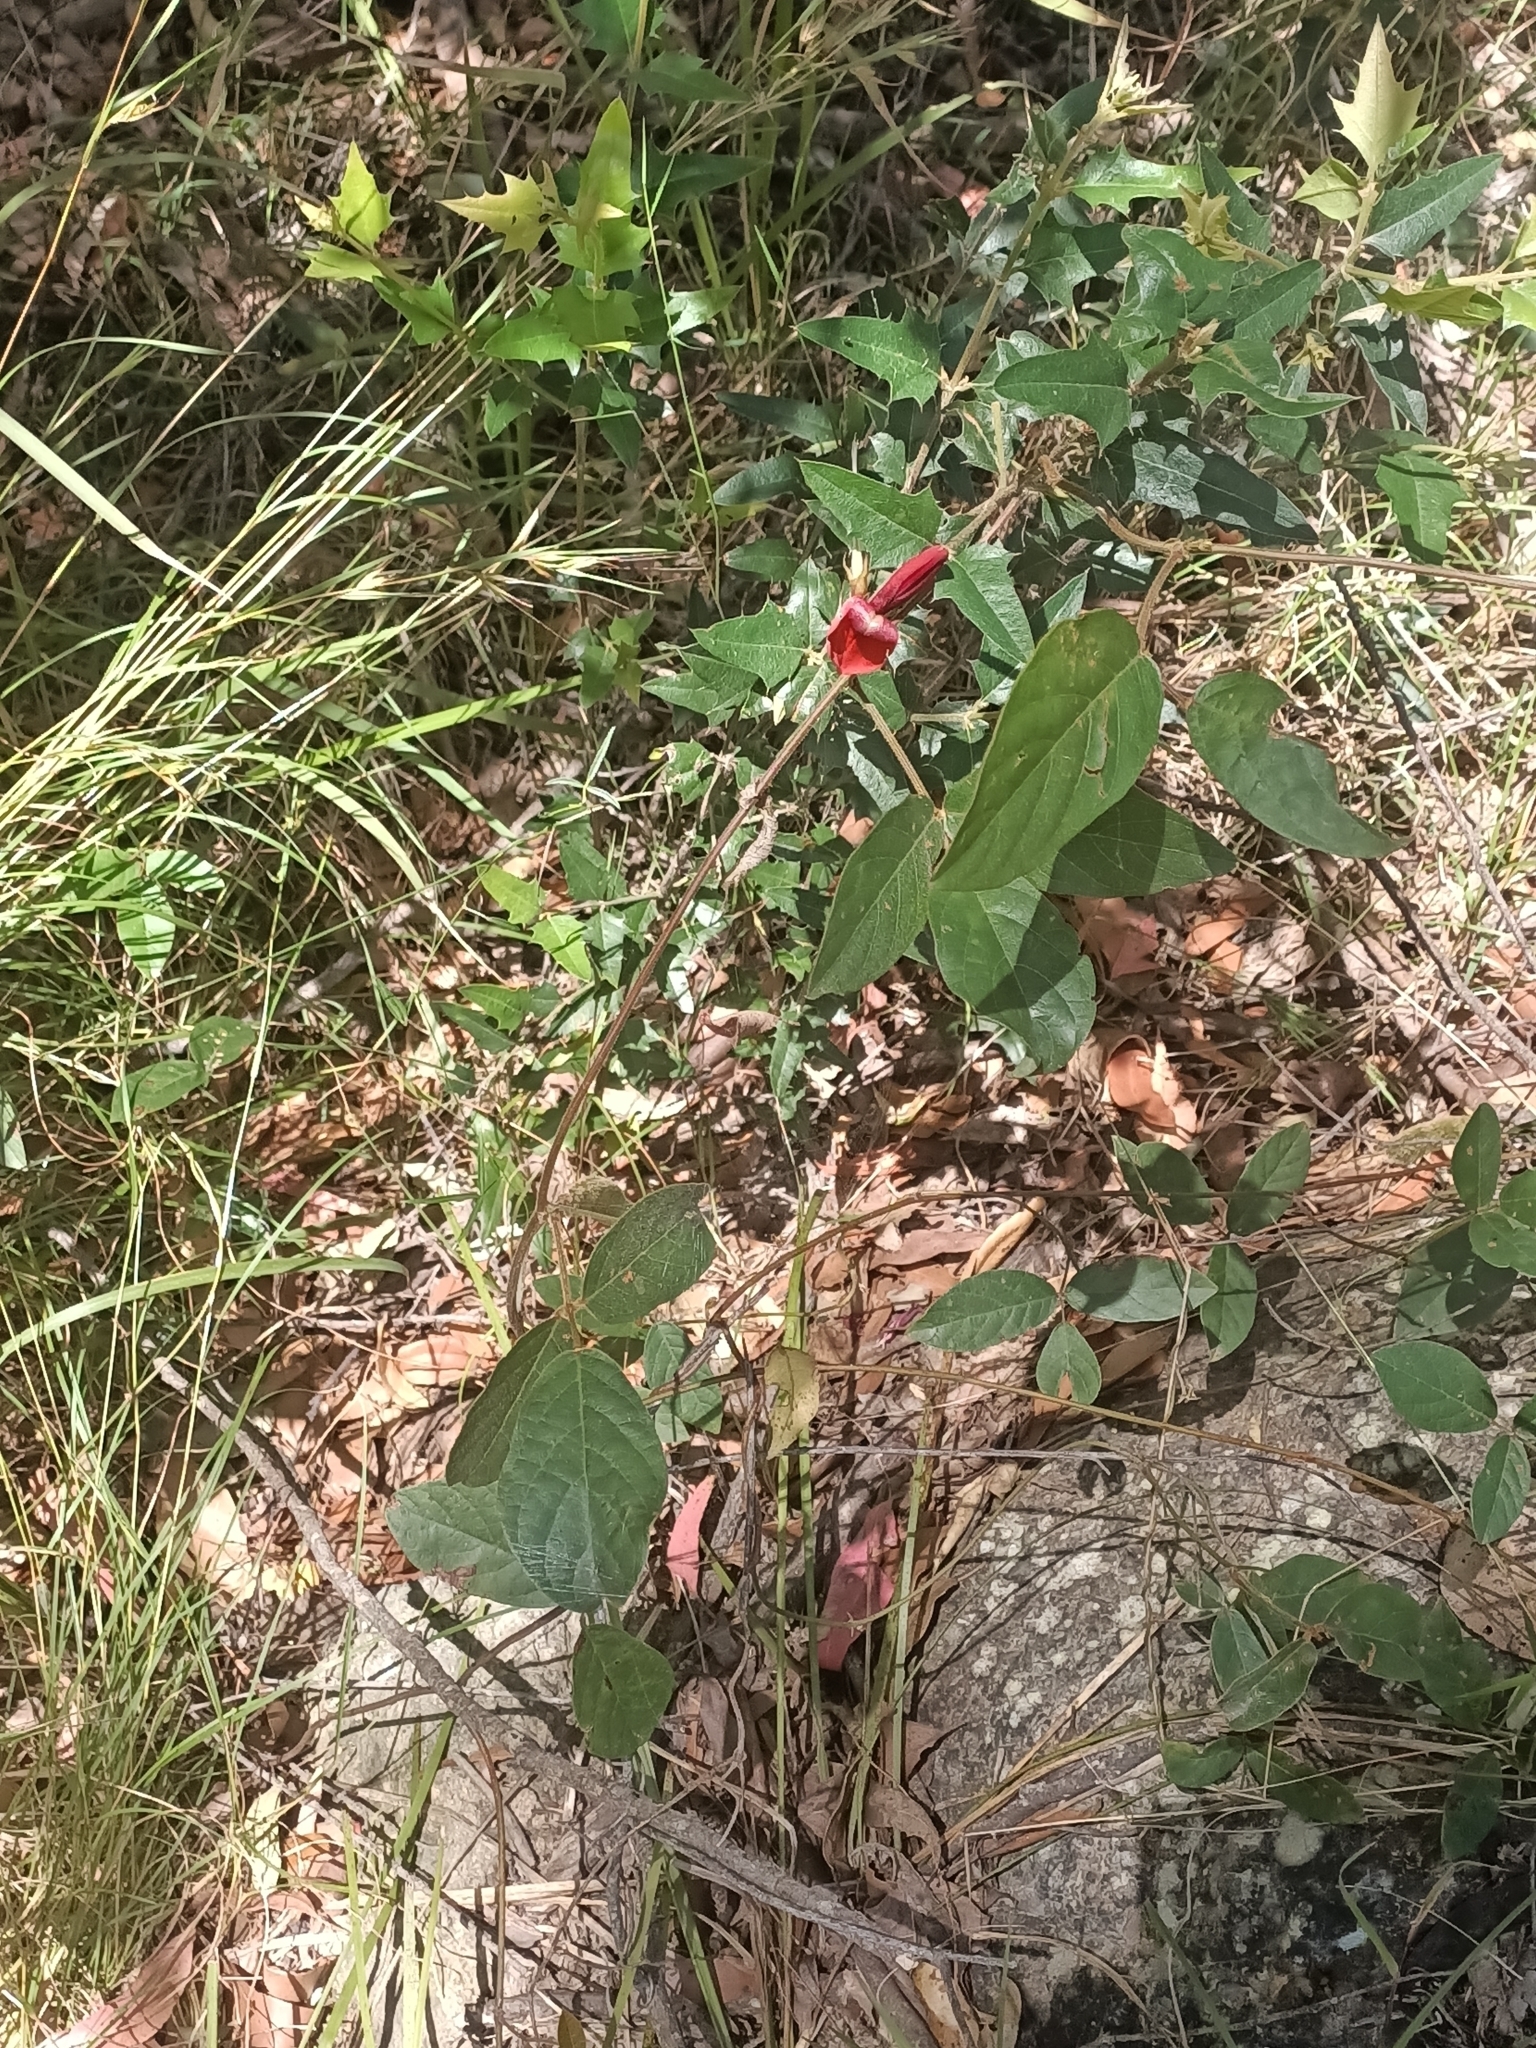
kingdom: Plantae
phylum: Tracheophyta
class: Magnoliopsida
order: Fabales
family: Fabaceae
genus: Kennedia
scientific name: Kennedia rubicunda
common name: Red kennedy-pea
